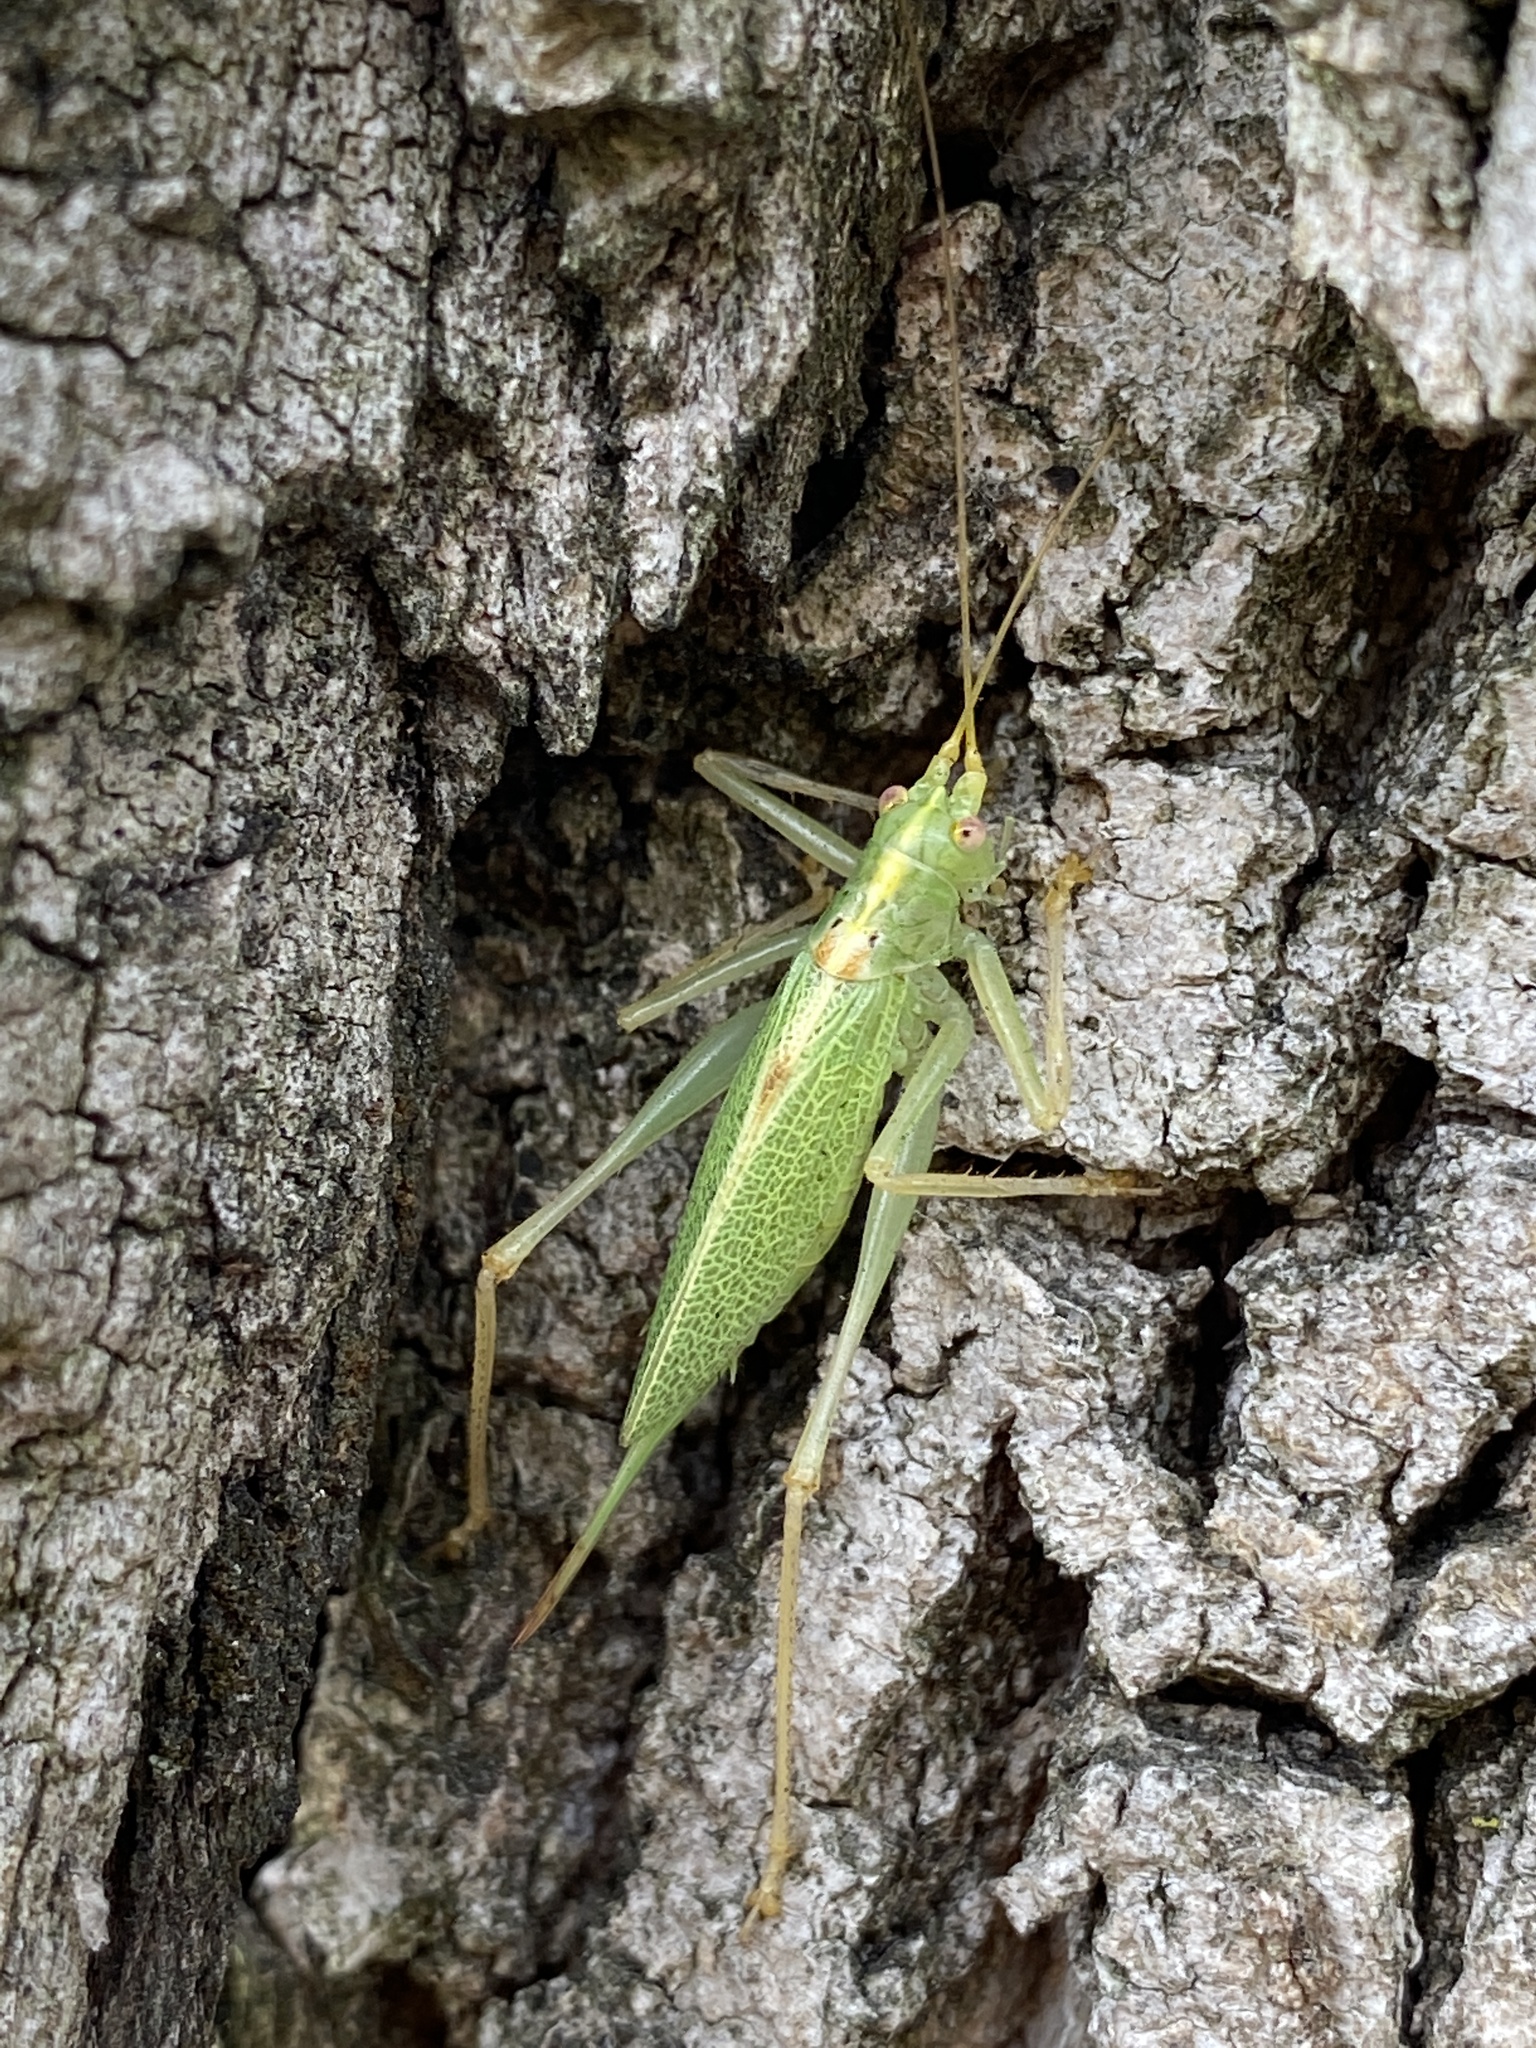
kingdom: Animalia
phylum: Arthropoda
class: Insecta
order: Orthoptera
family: Tettigoniidae
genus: Meconema
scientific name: Meconema thalassinum
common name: Oak bush-cricket
